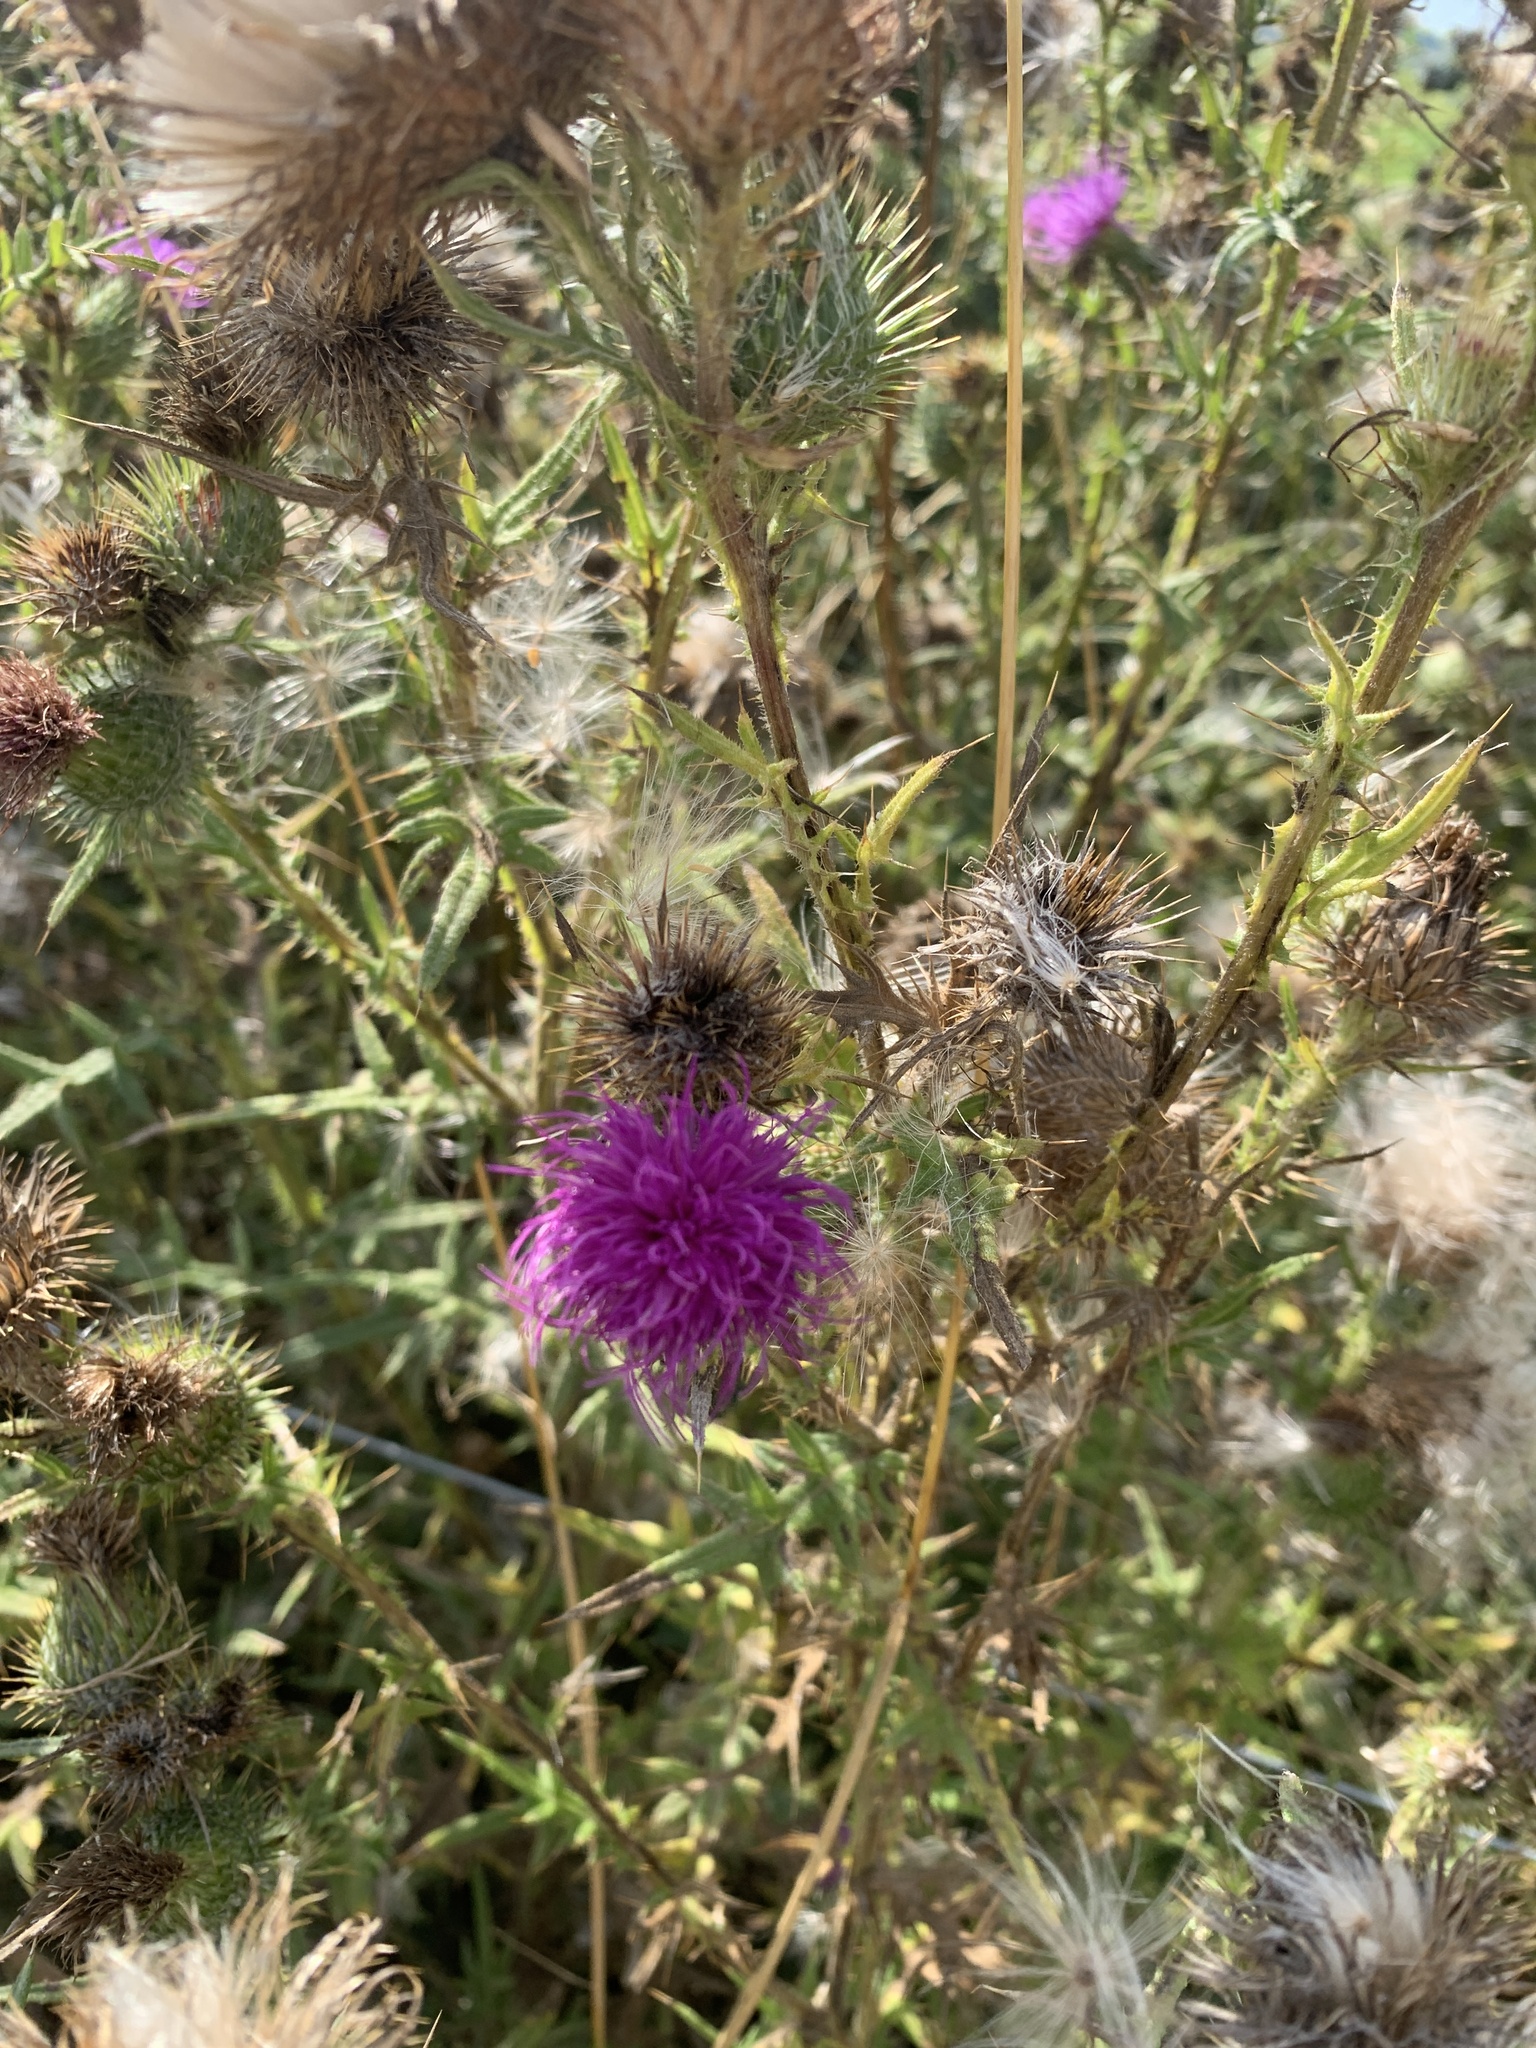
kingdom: Plantae
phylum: Tracheophyta
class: Magnoliopsida
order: Asterales
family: Asteraceae
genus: Cirsium
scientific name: Cirsium vulgare
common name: Bull thistle
